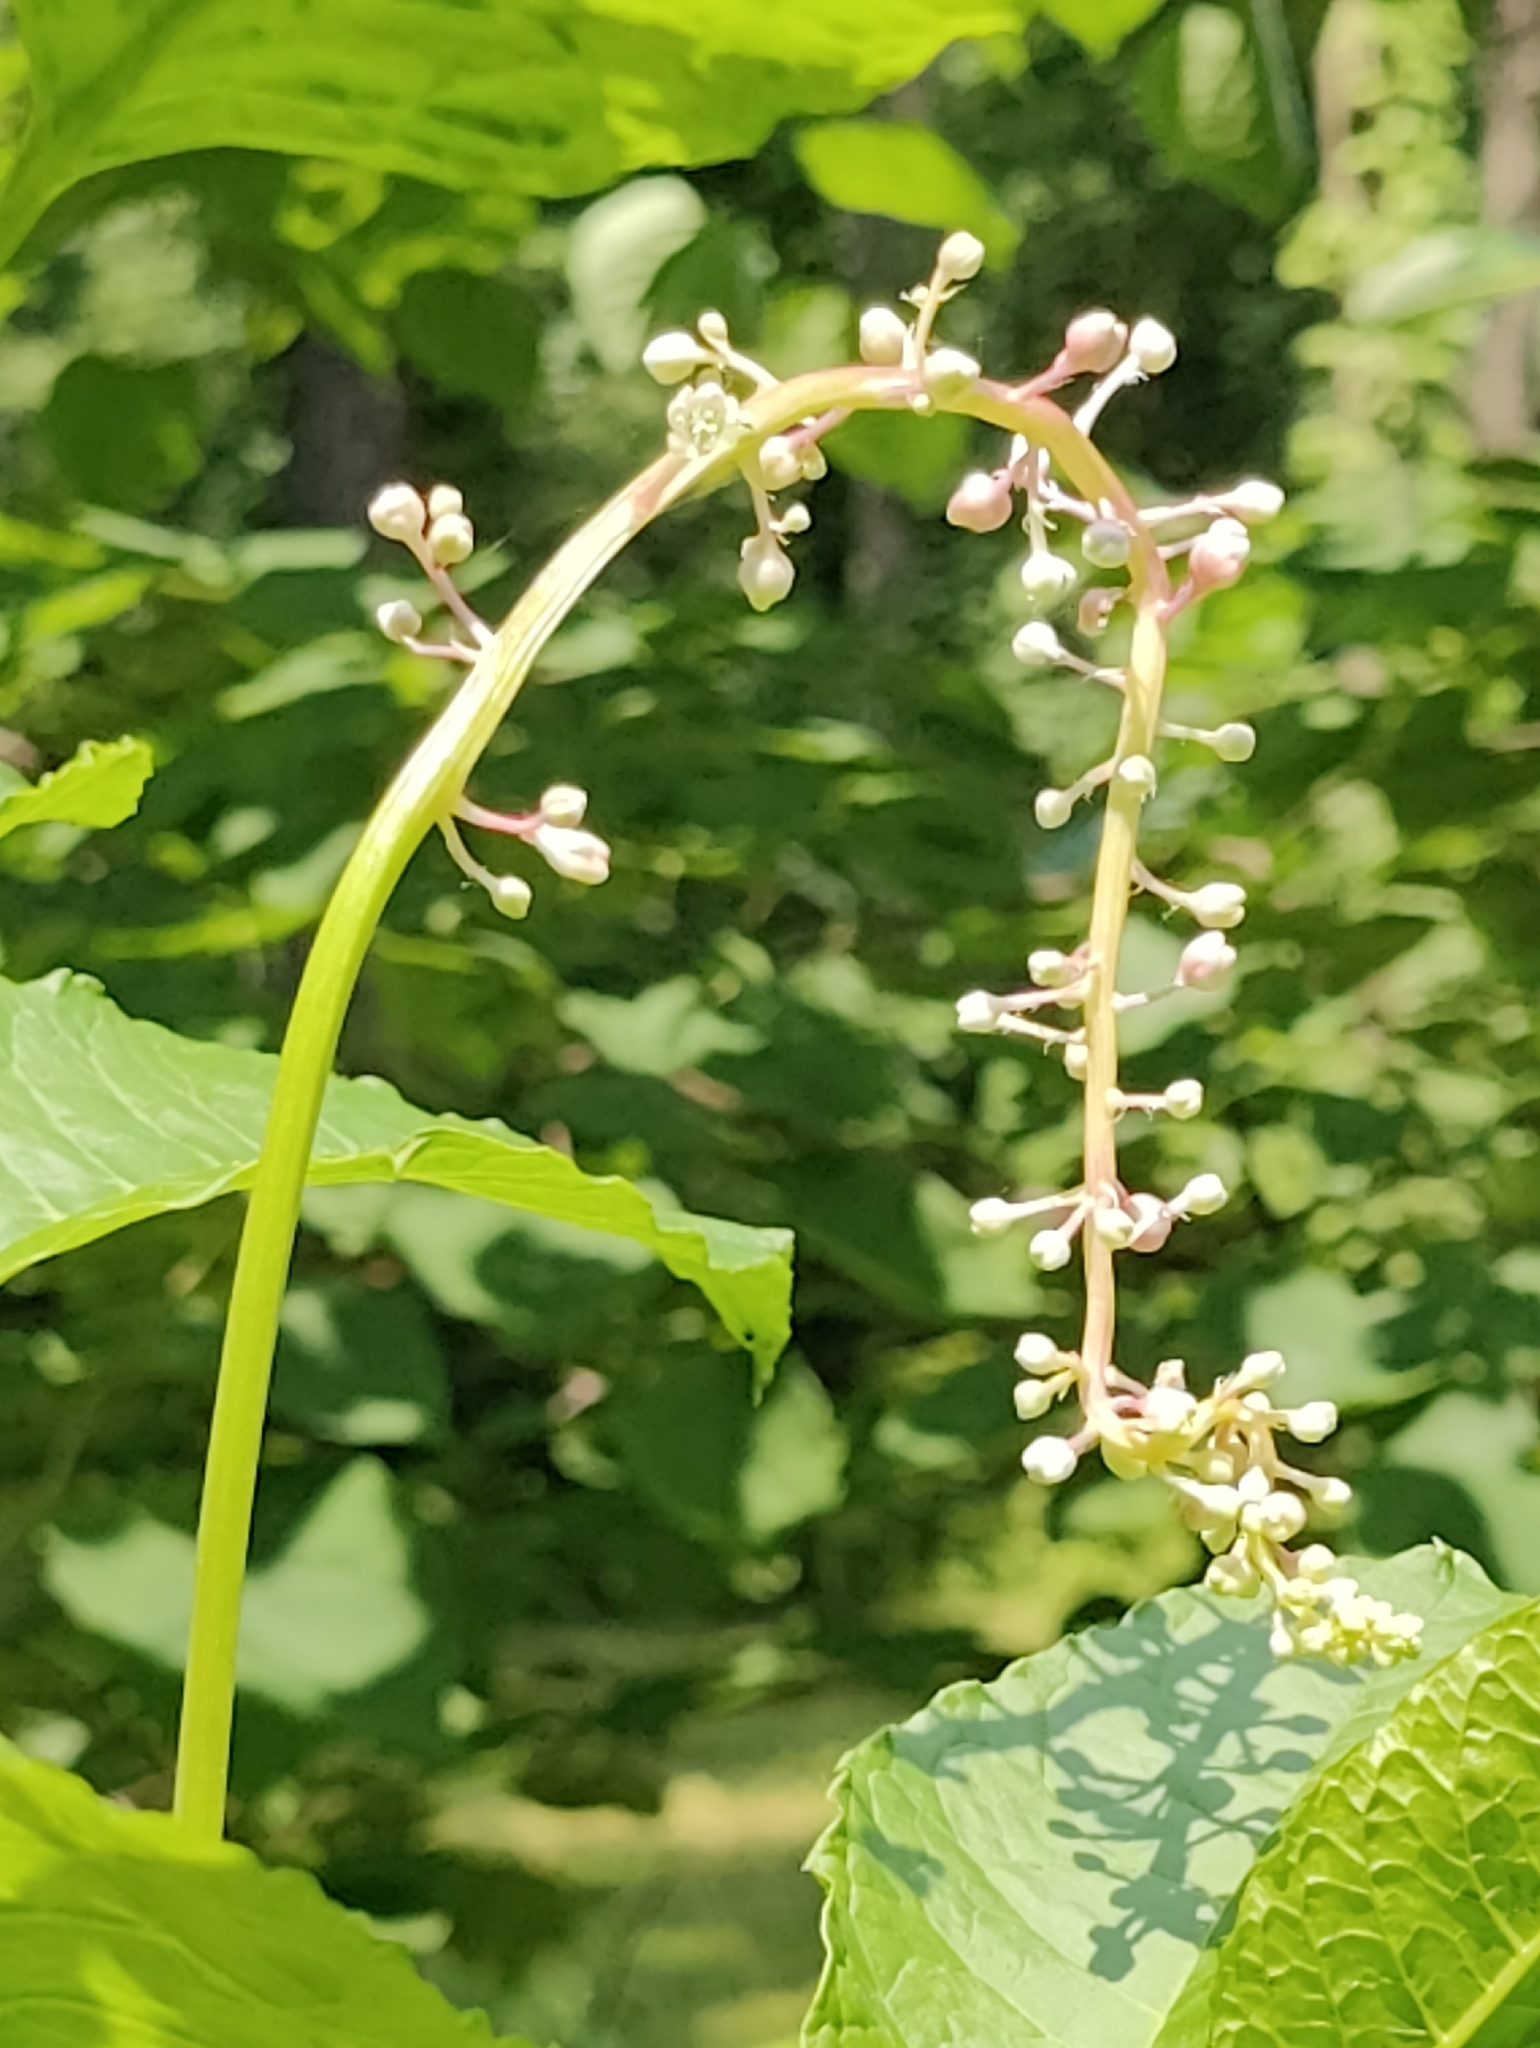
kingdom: Plantae
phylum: Tracheophyta
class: Magnoliopsida
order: Caryophyllales
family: Phytolaccaceae
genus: Phytolacca
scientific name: Phytolacca americana
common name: American pokeweed
